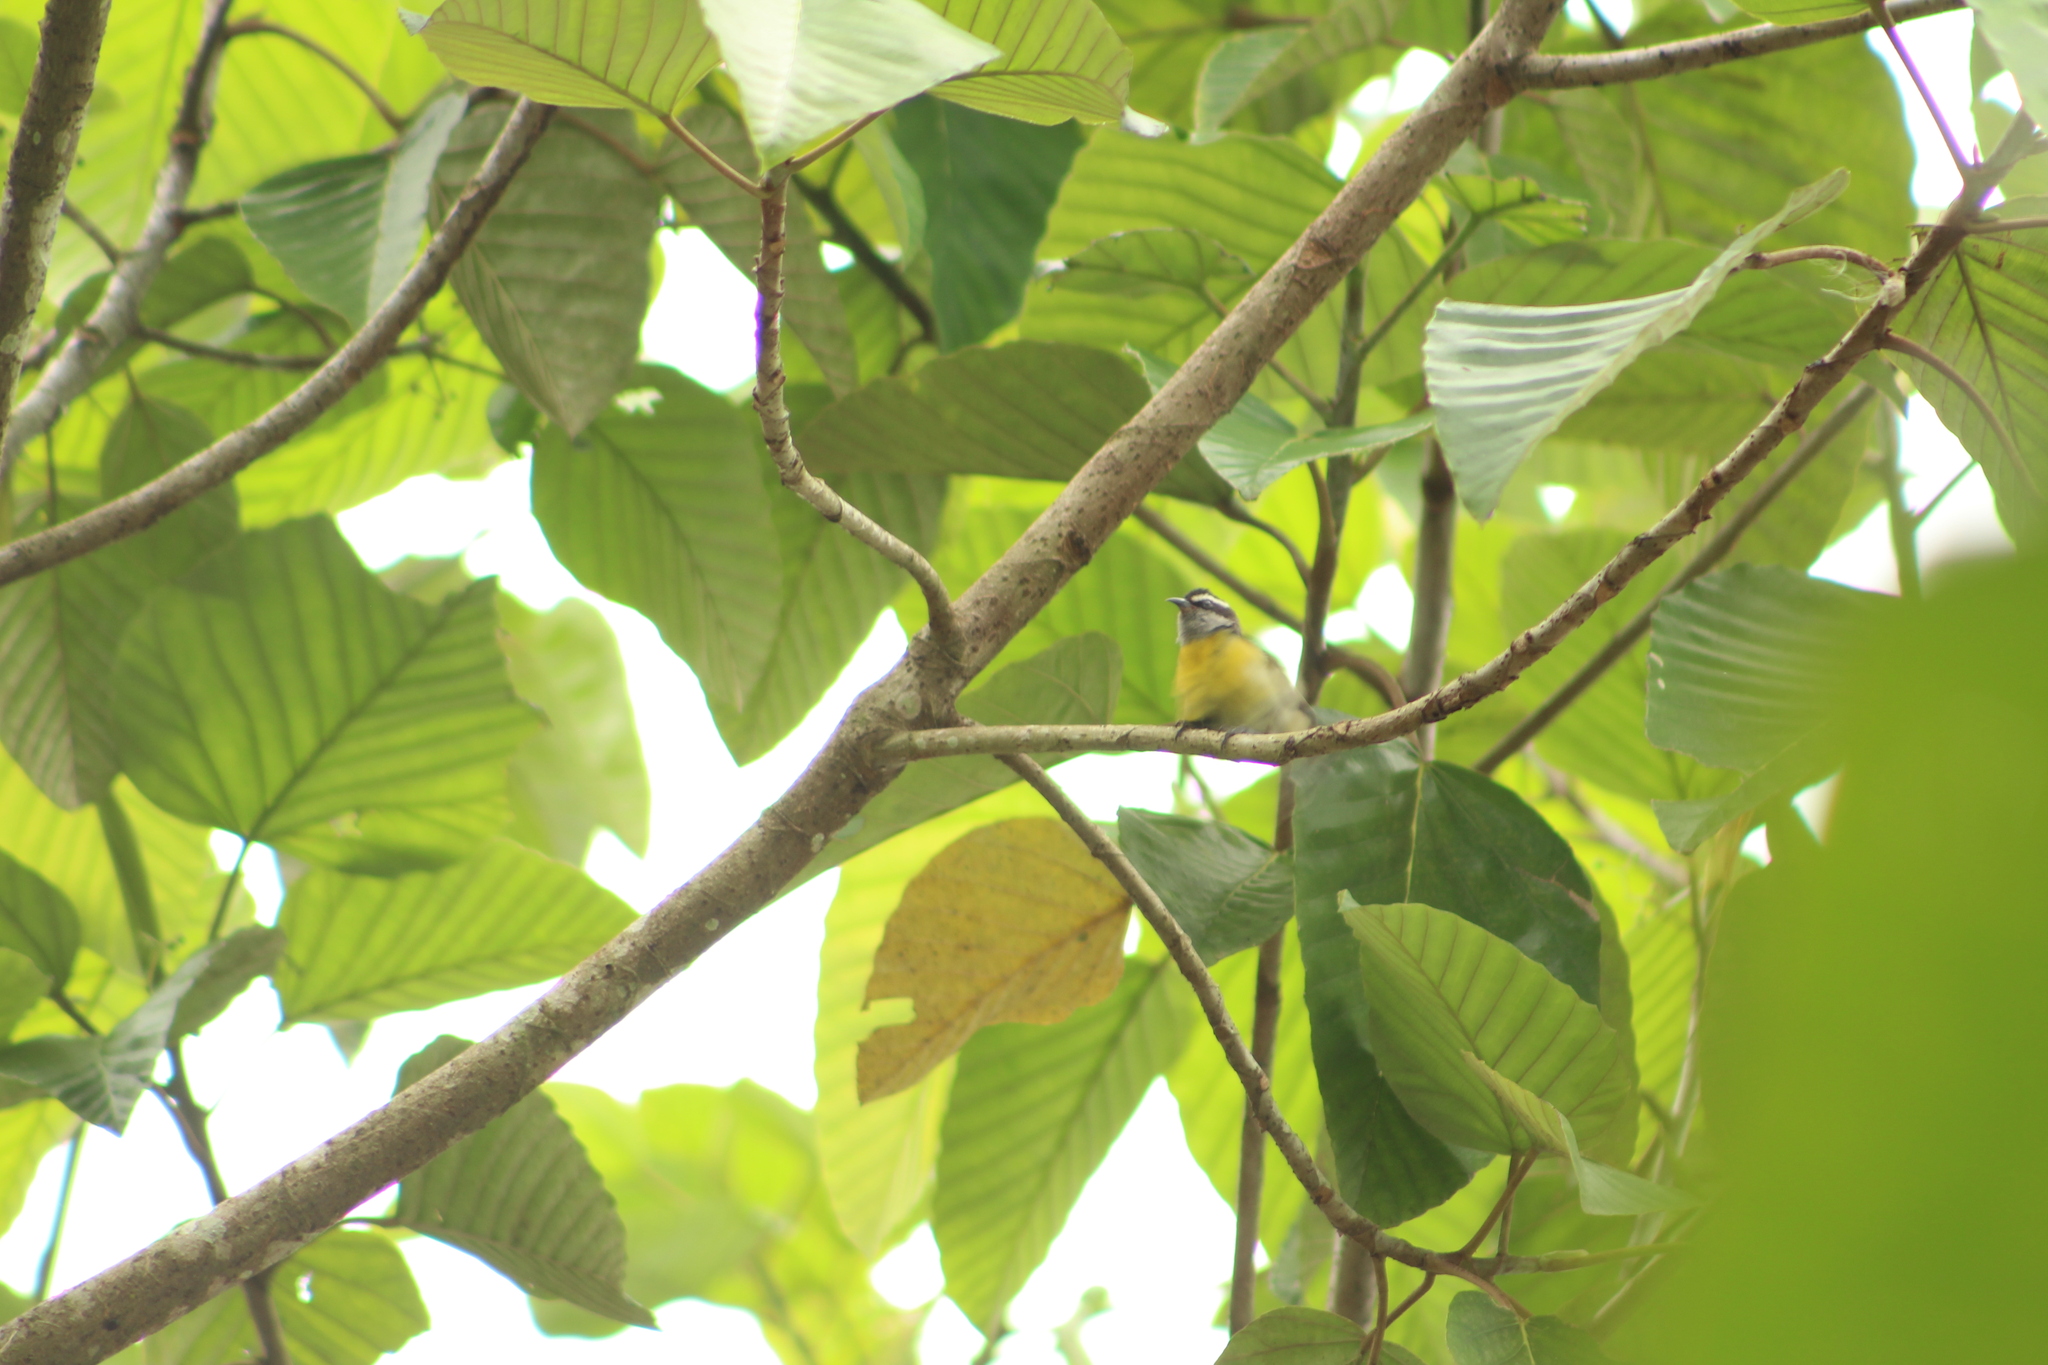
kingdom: Animalia
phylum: Chordata
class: Aves
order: Passeriformes
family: Thraupidae
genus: Coereba
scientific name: Coereba flaveola
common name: Bananaquit
